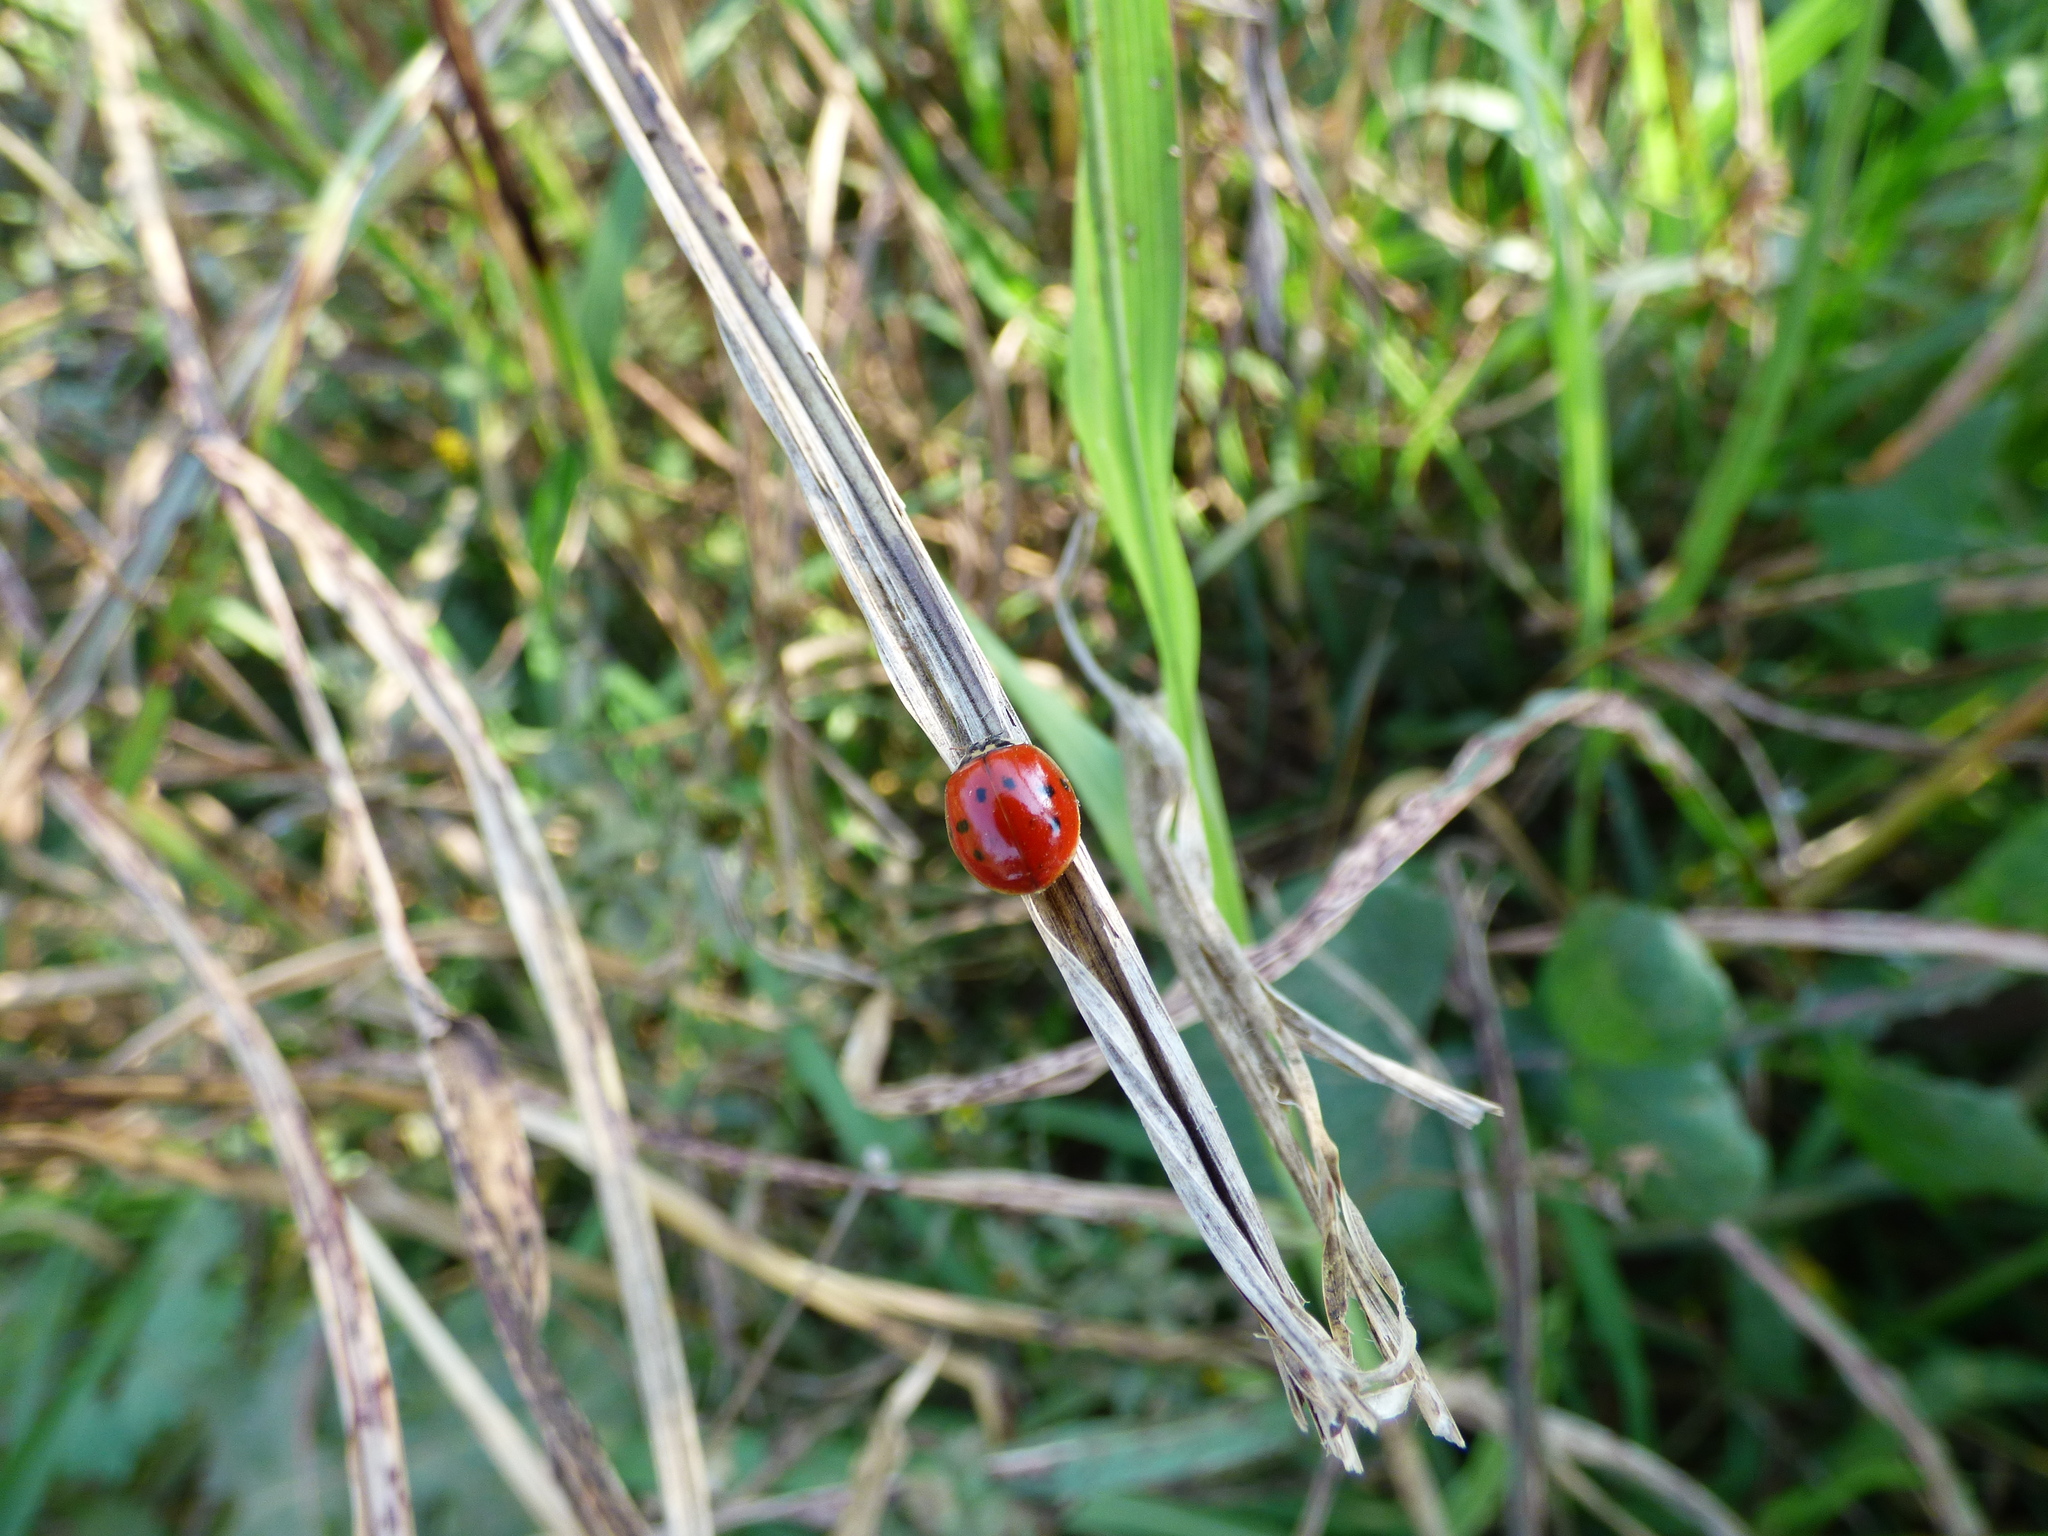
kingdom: Animalia
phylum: Arthropoda
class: Insecta
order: Coleoptera
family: Coccinellidae
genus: Harmonia
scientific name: Harmonia axyridis
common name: Harlequin ladybird
